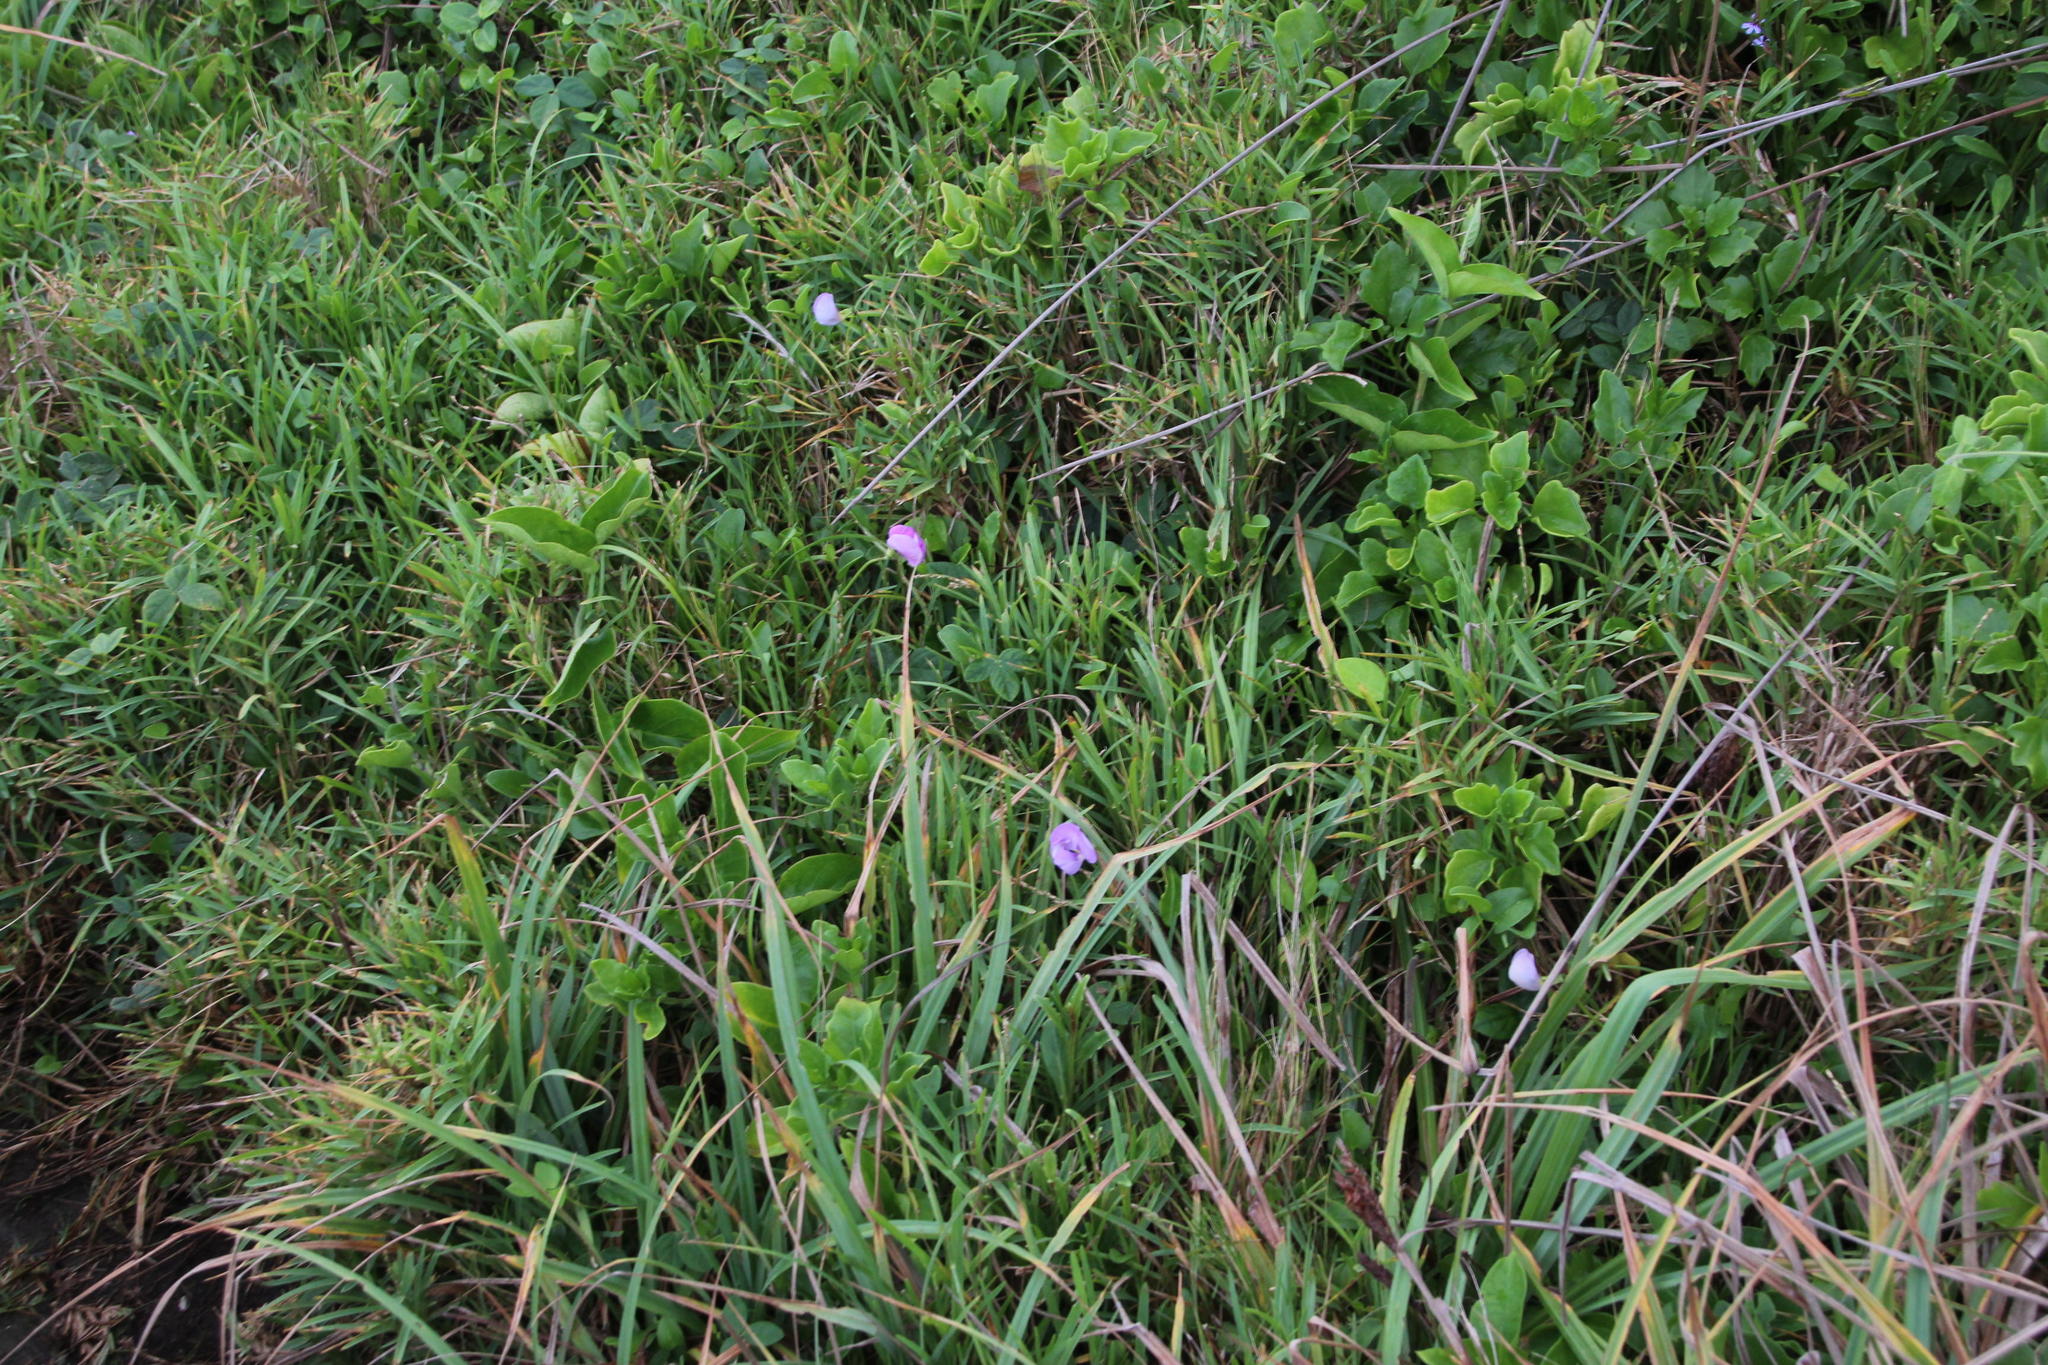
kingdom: Plantae
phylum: Tracheophyta
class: Magnoliopsida
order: Fabales
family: Fabaceae
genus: Vigna
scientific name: Vigna vexillata
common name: Zombi pea
